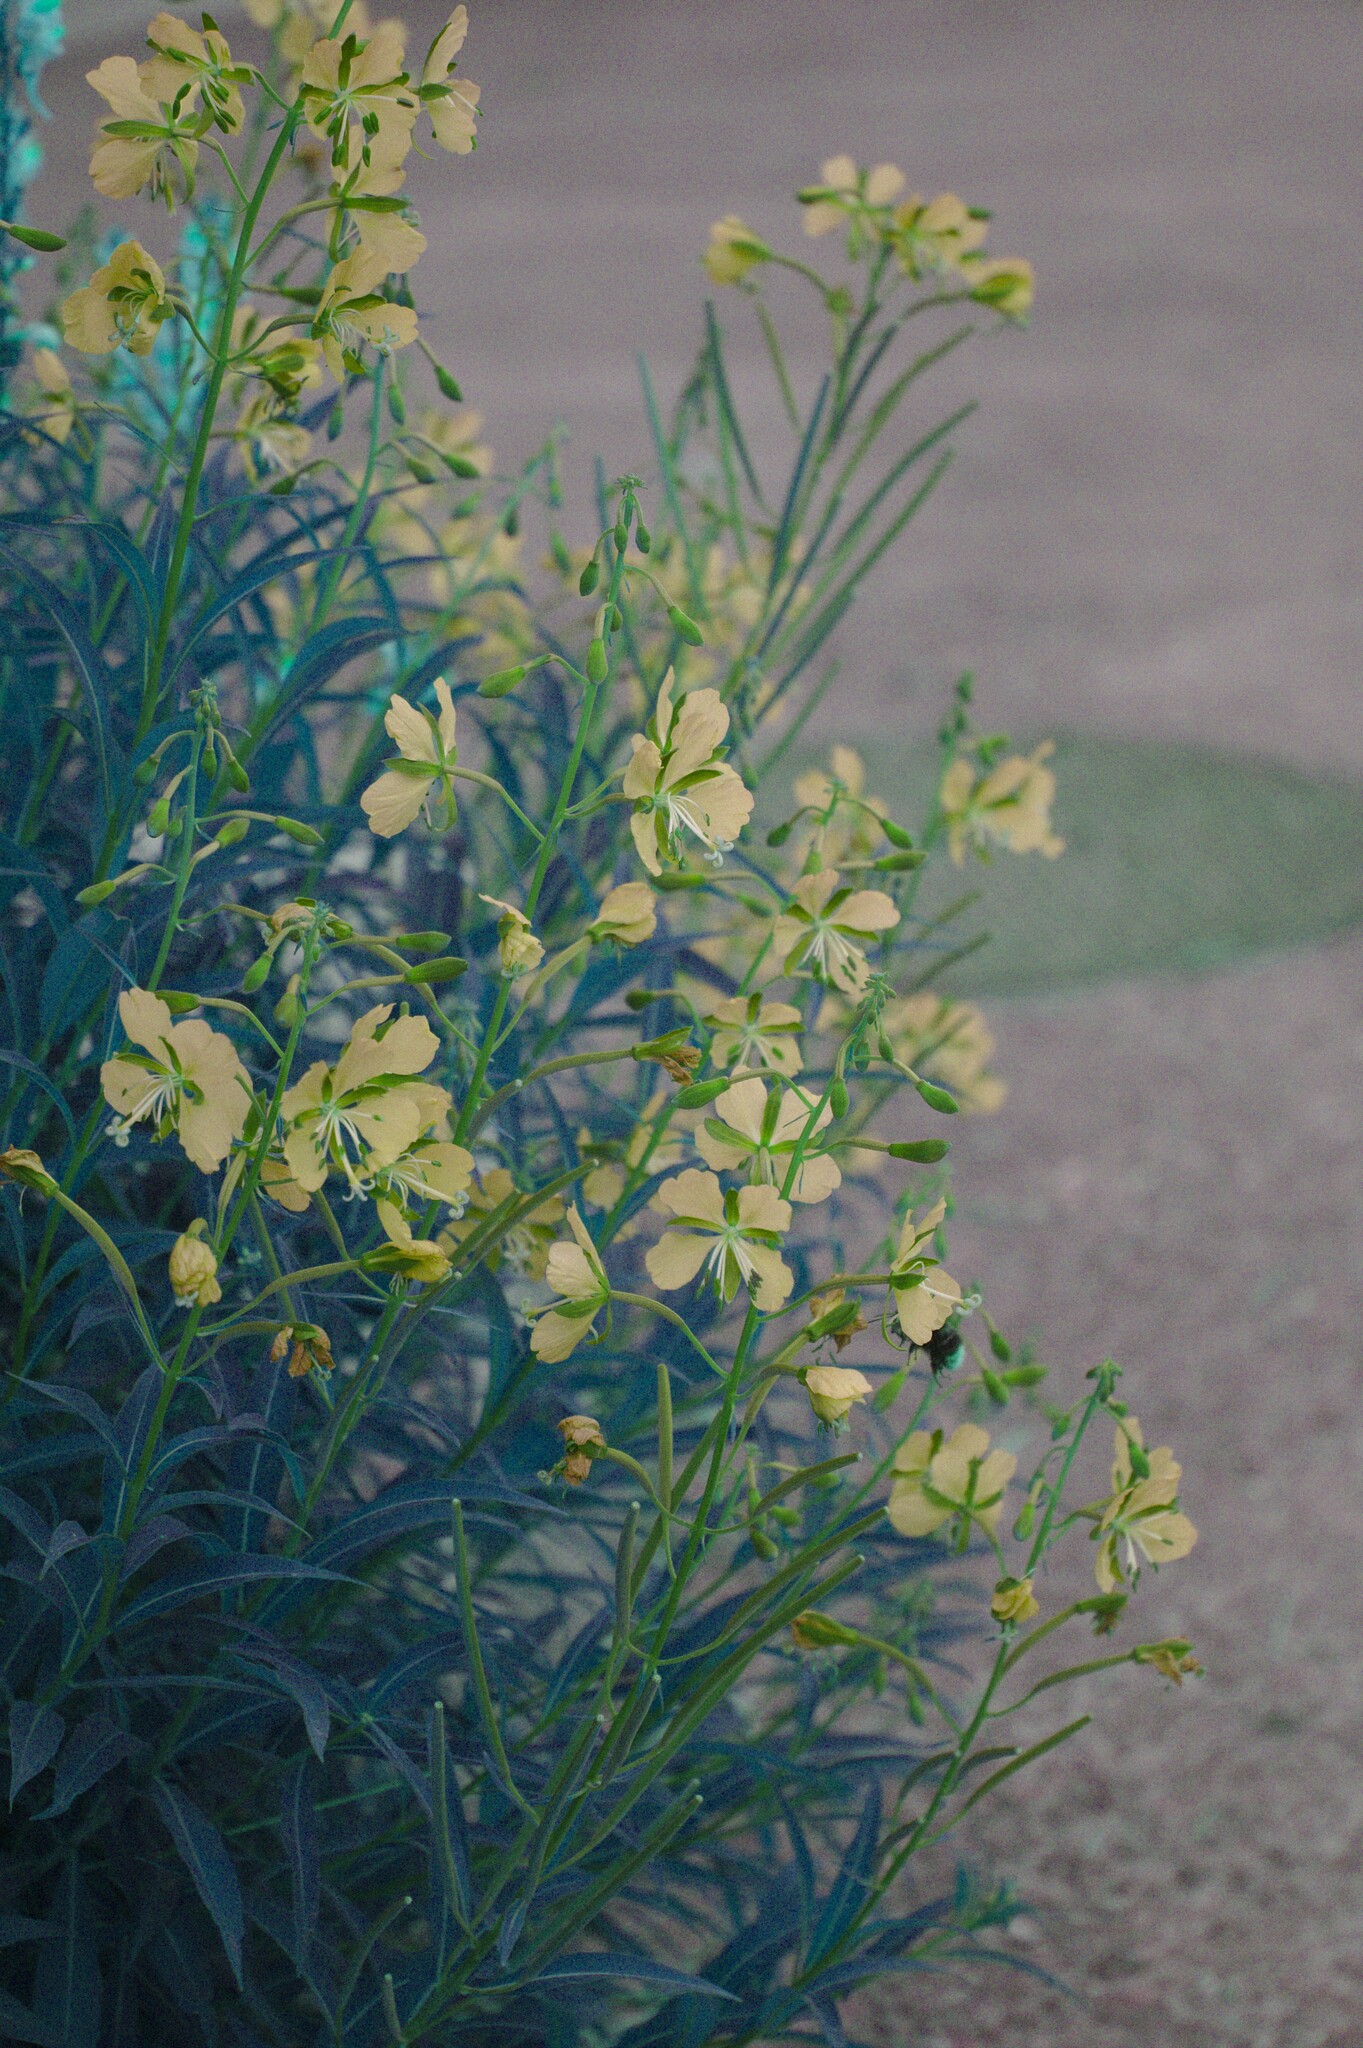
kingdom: Plantae
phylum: Tracheophyta
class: Magnoliopsida
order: Myrtales
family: Onagraceae
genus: Chamaenerion
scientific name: Chamaenerion angustifolium
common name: Fireweed
